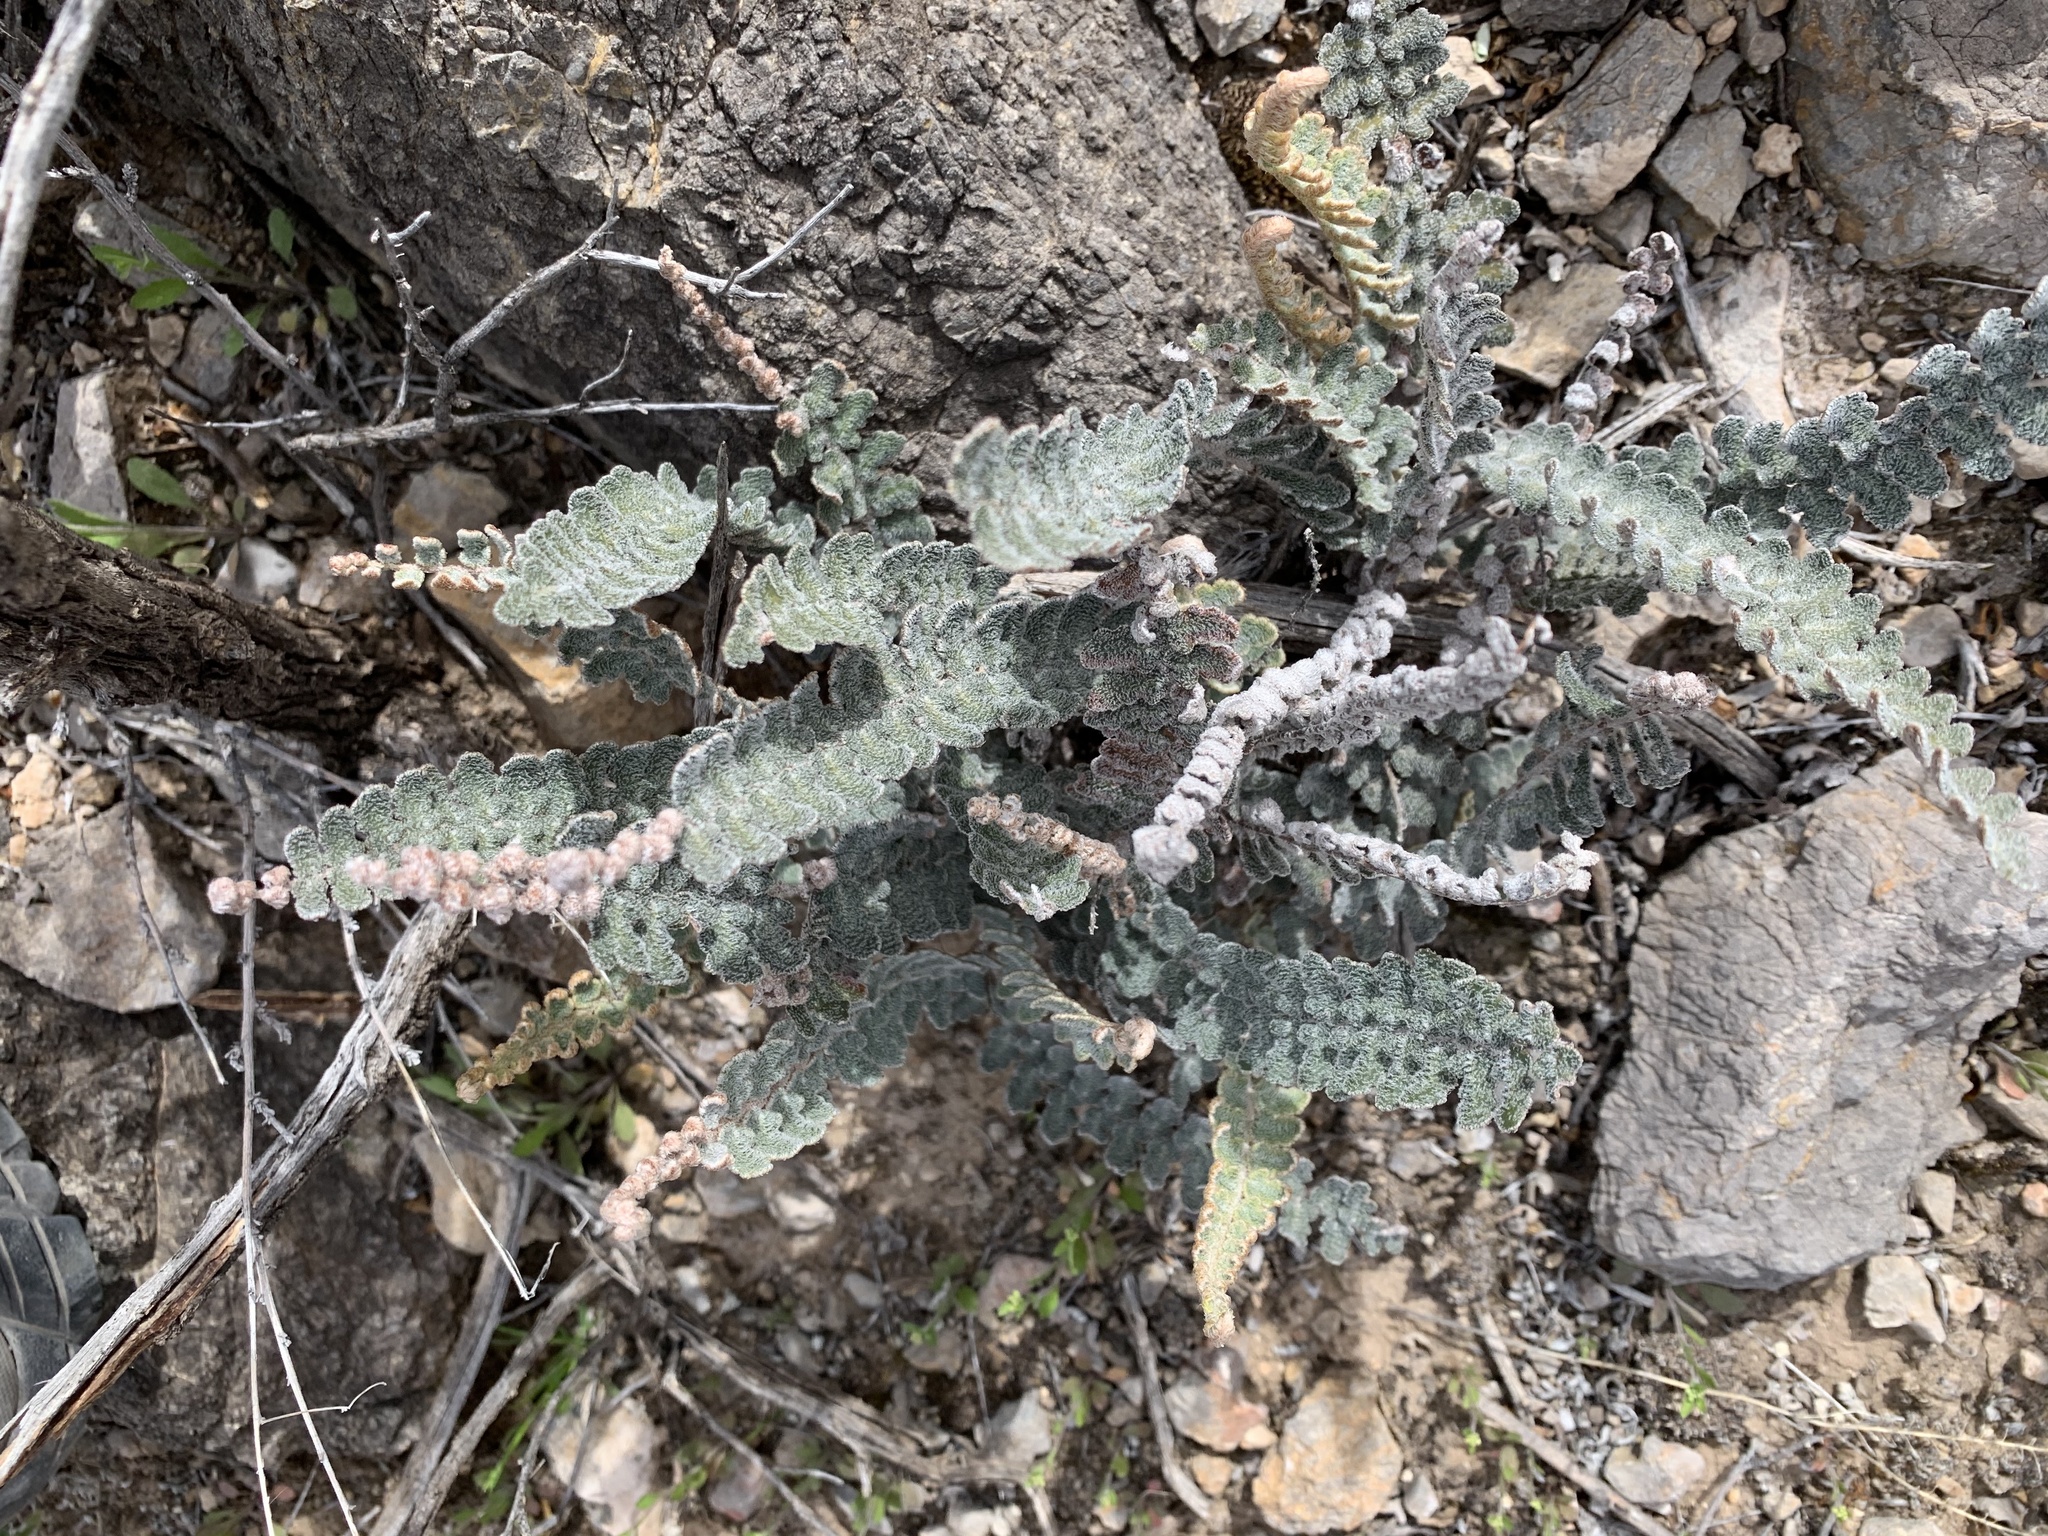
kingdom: Plantae
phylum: Tracheophyta
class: Polypodiopsida
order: Polypodiales
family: Pteridaceae
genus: Astrolepis
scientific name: Astrolepis integerrima
